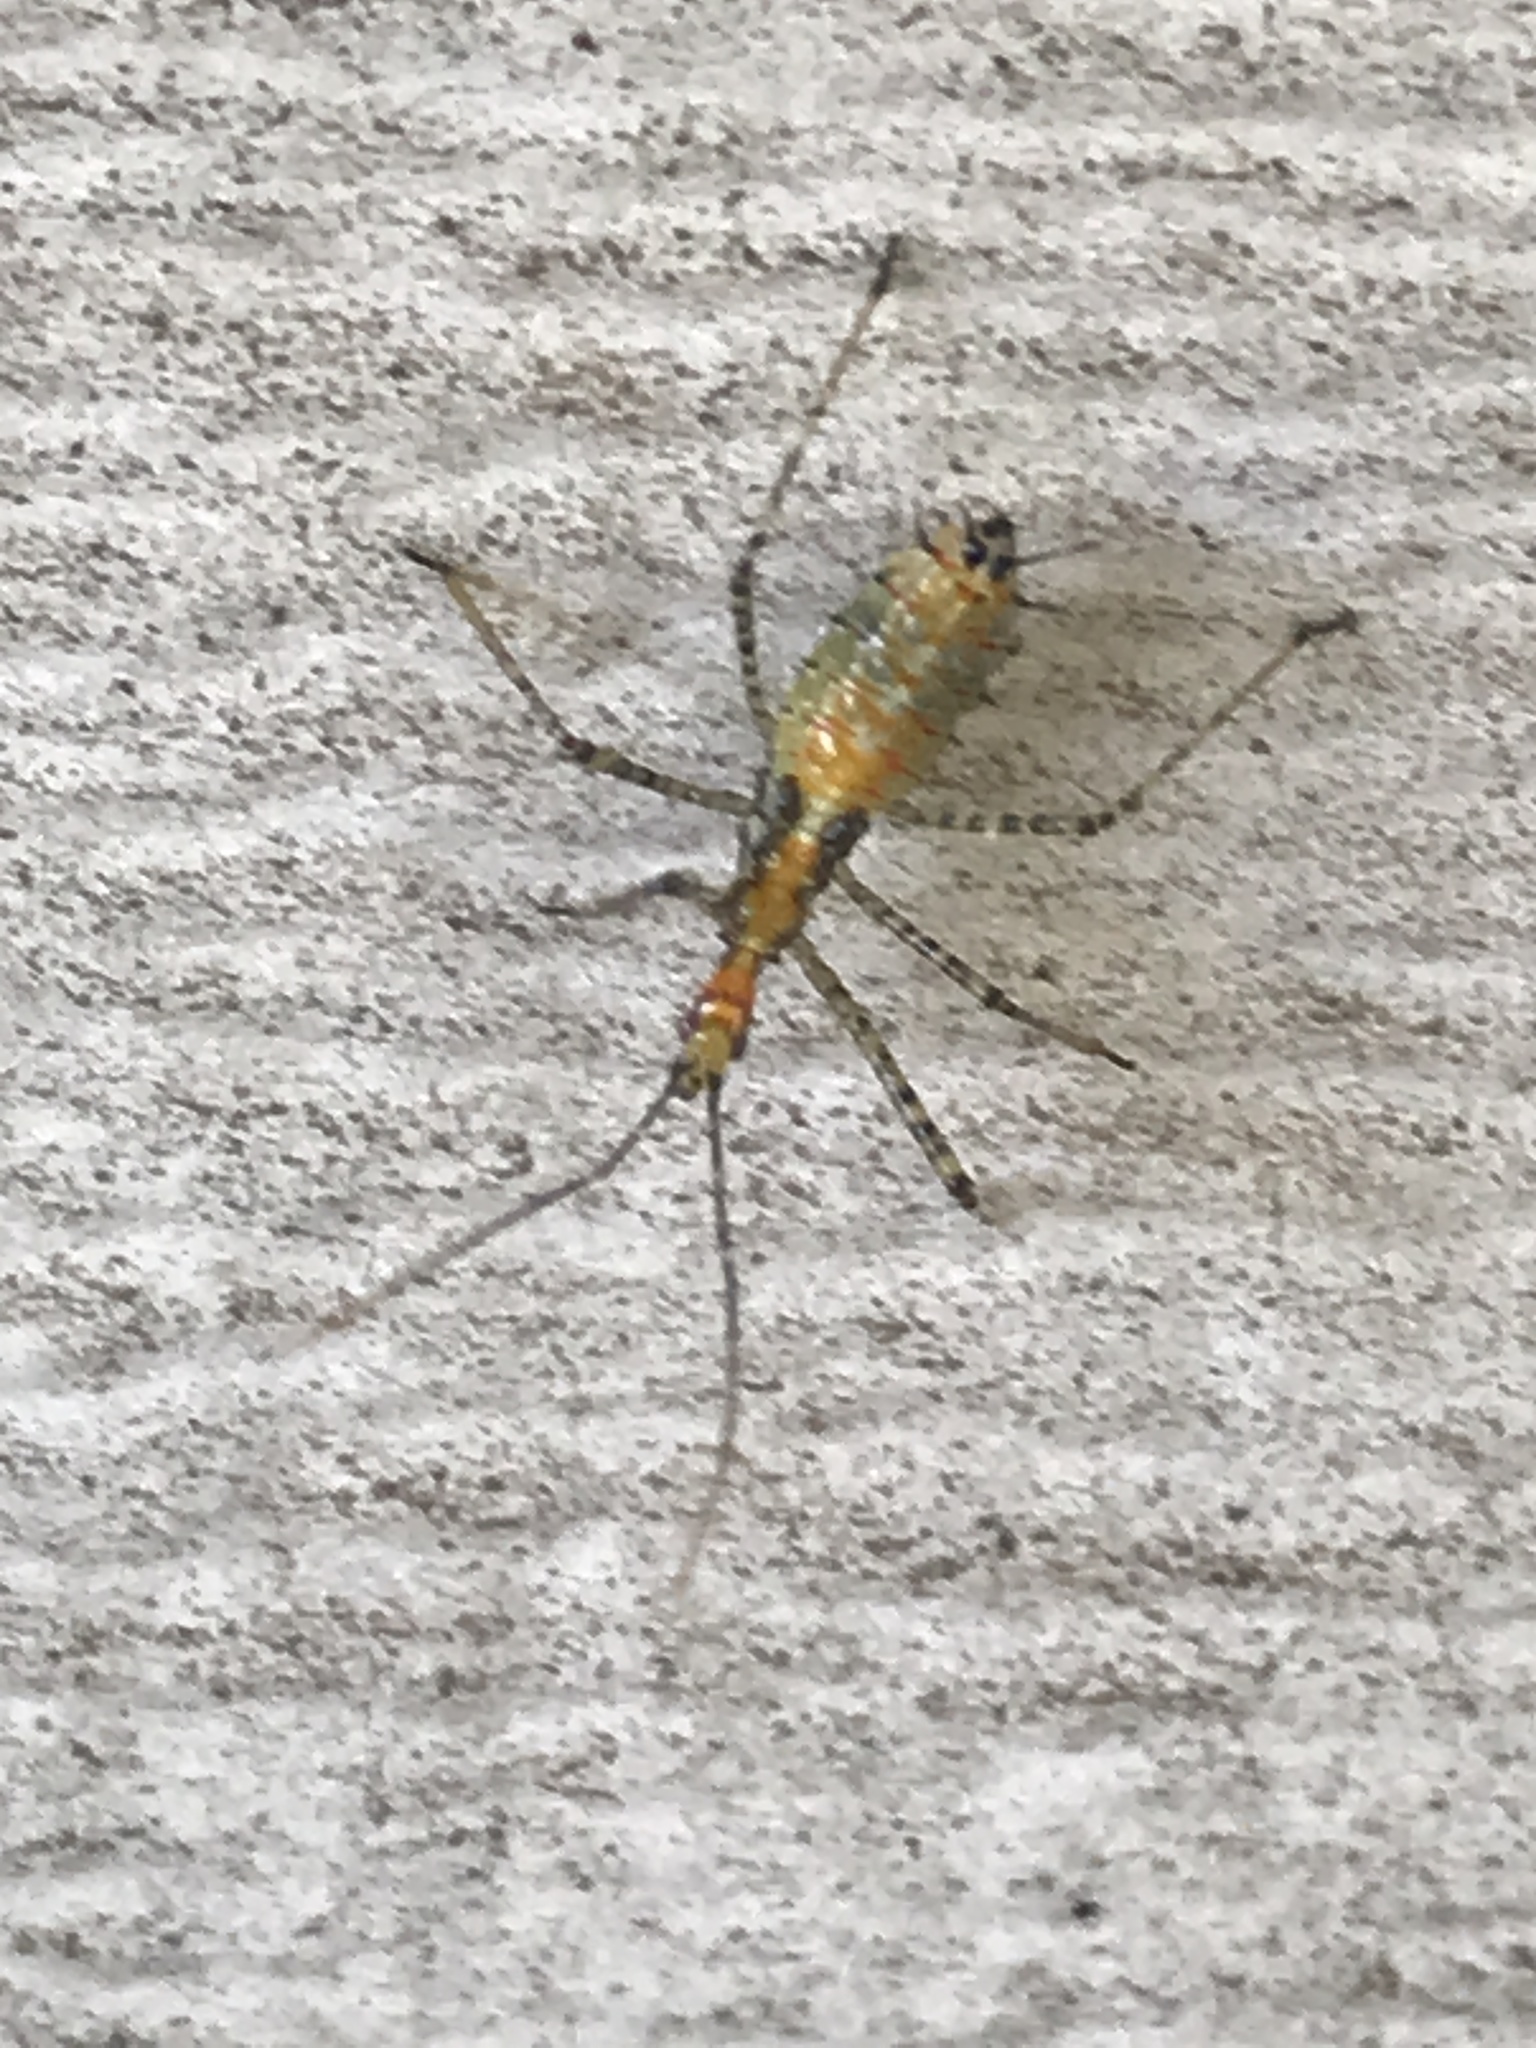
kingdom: Animalia
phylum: Arthropoda
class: Insecta
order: Hemiptera
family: Reduviidae
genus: Zelus
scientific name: Zelus renardii
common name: Assassin bug
